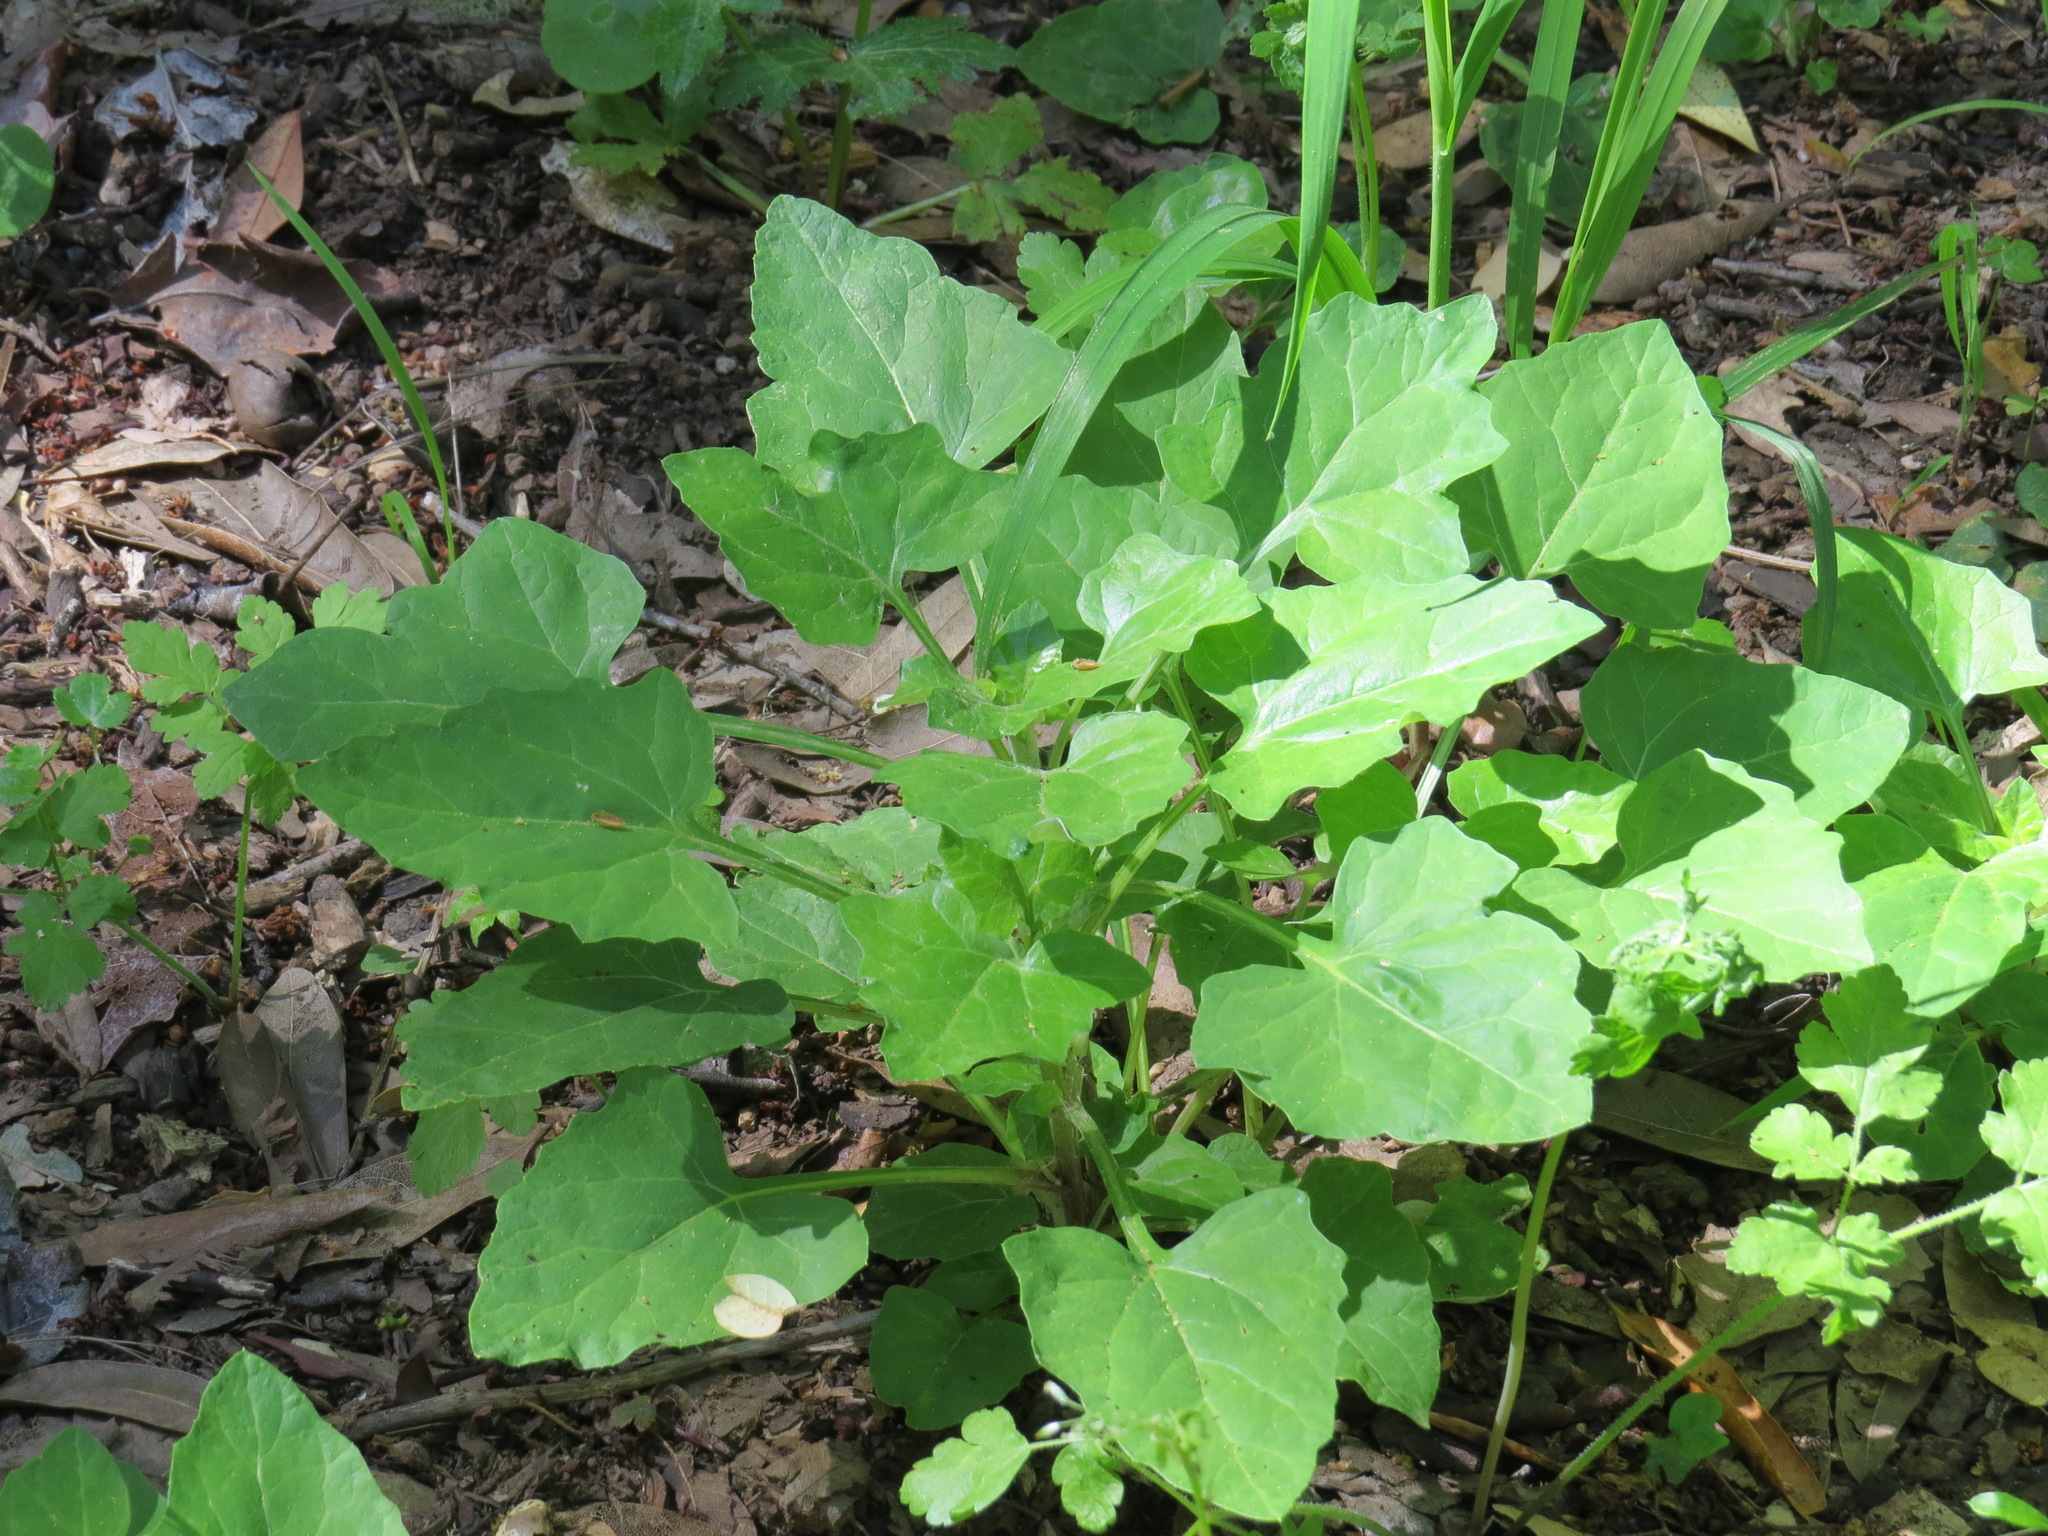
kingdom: Plantae
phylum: Tracheophyta
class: Magnoliopsida
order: Asterales
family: Asteraceae
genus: Adenocaulon
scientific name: Adenocaulon bicolor
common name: Trailplant
